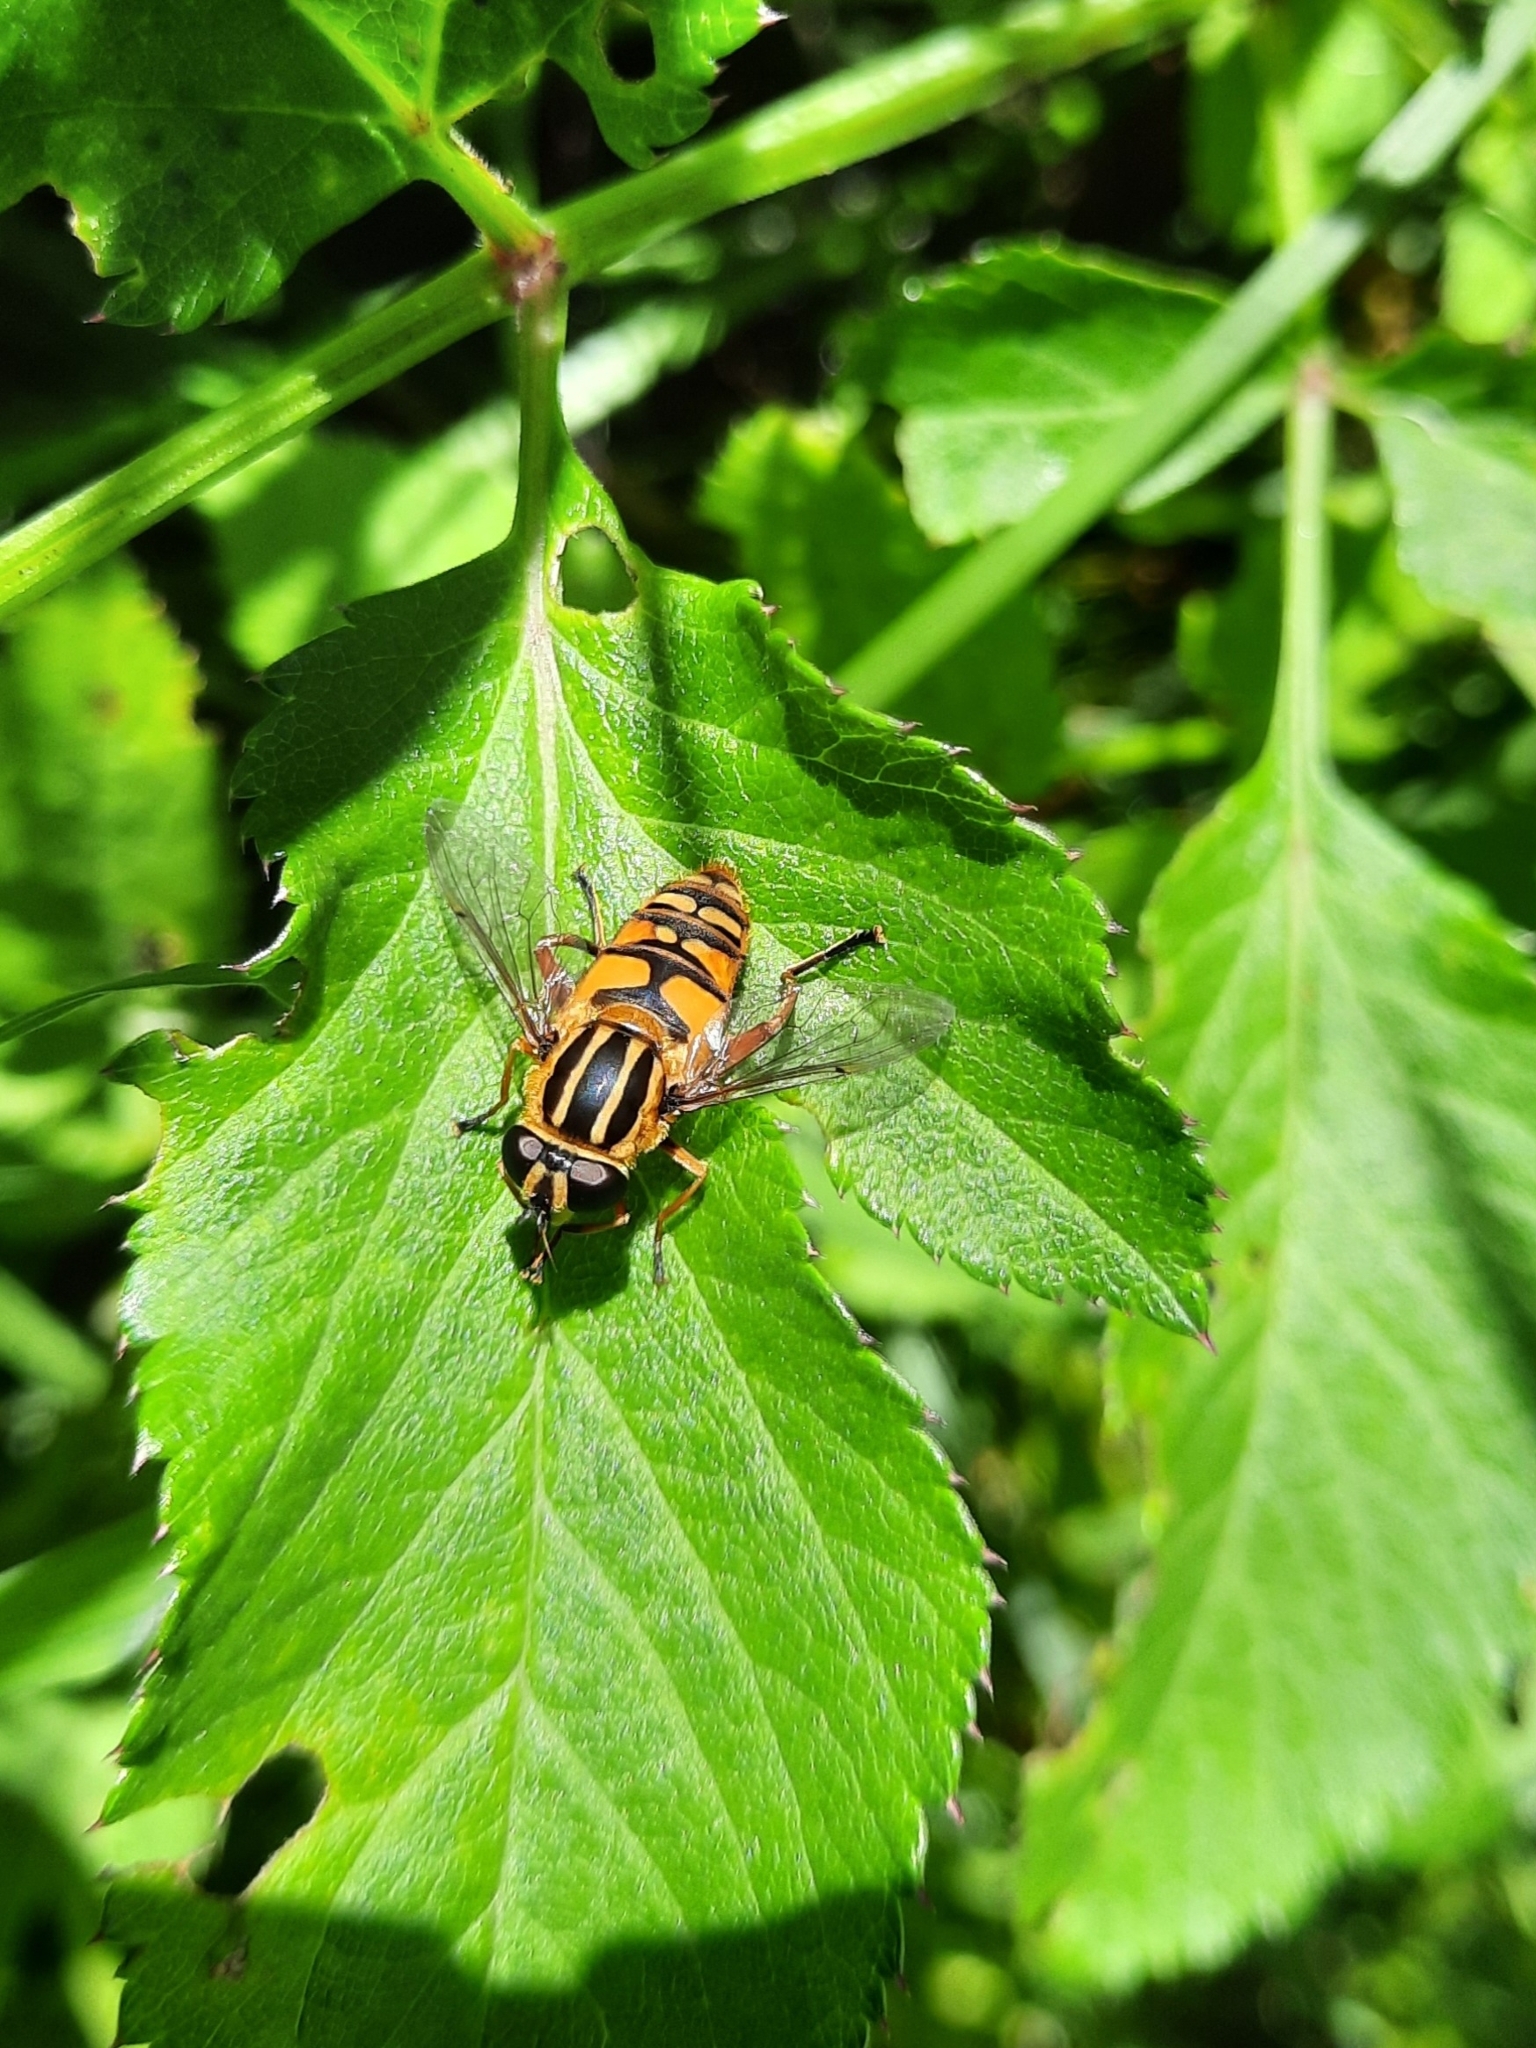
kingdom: Animalia
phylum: Arthropoda
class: Insecta
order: Diptera
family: Syrphidae
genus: Helophilus
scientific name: Helophilus pendulus
